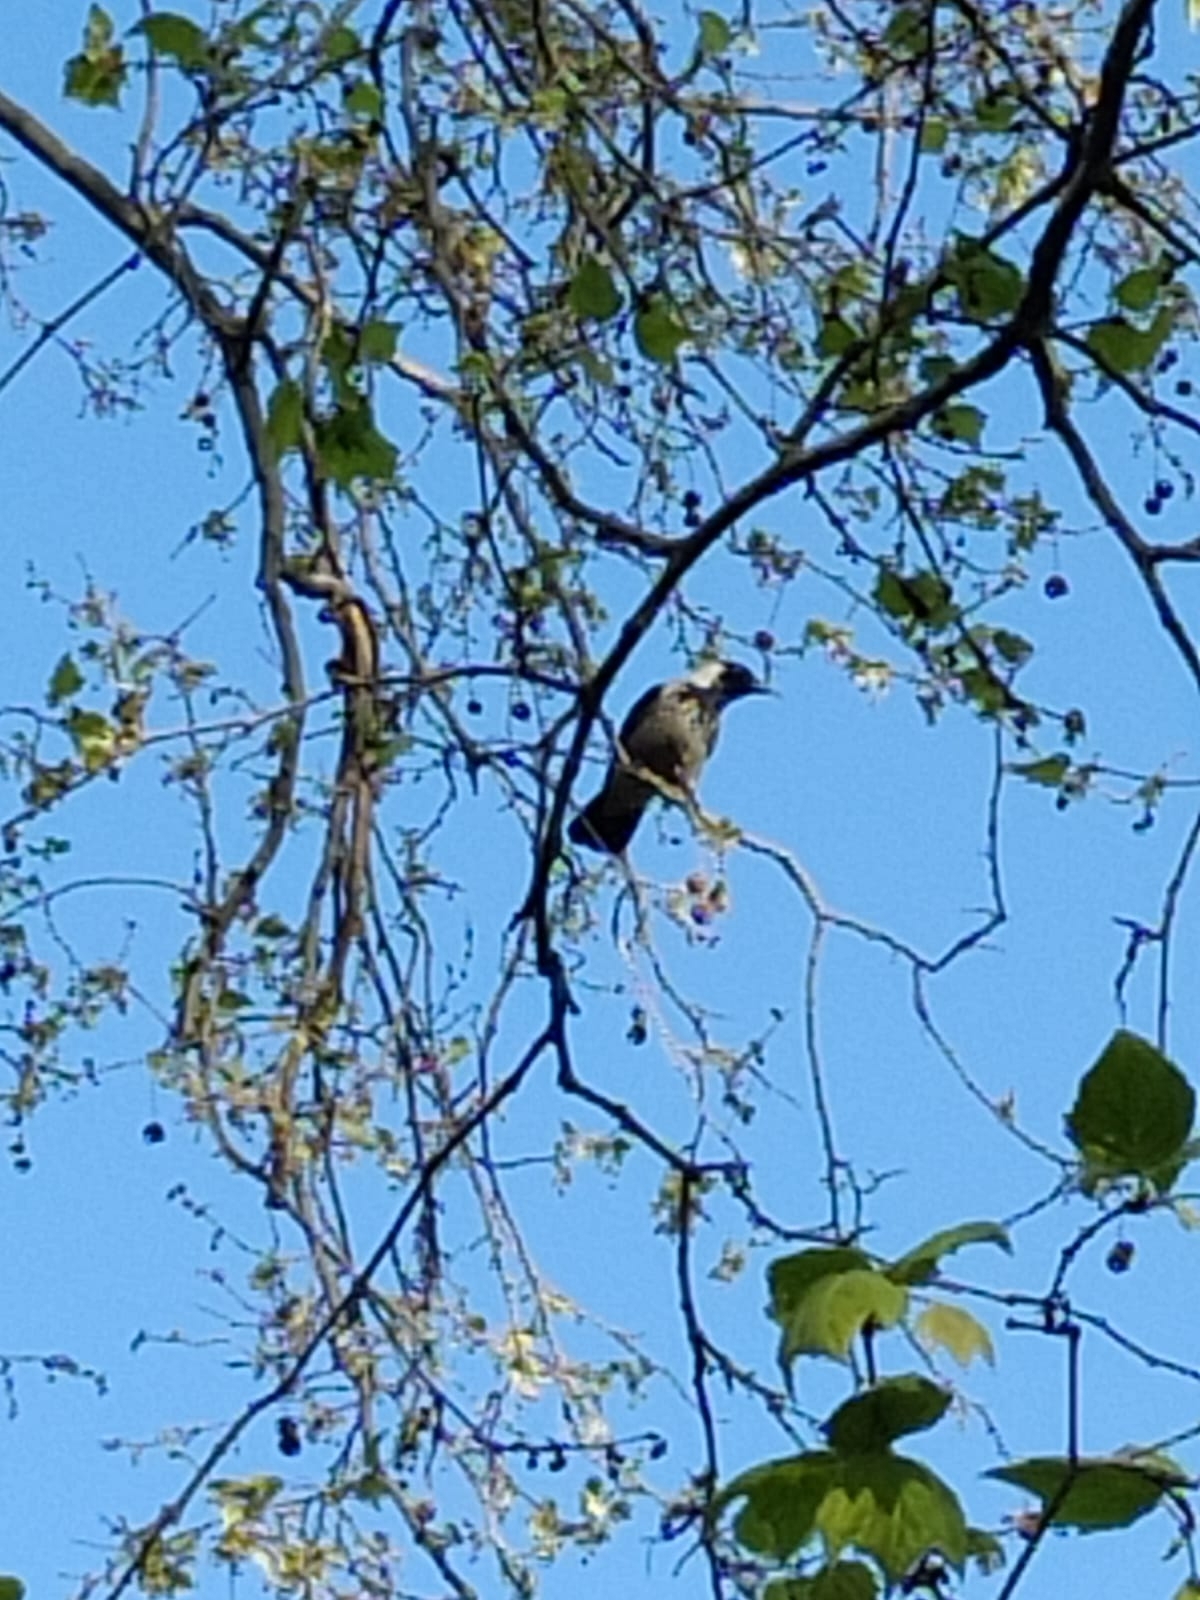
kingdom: Animalia
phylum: Chordata
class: Aves
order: Passeriformes
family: Corvidae
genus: Corvus
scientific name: Corvus cornix
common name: Hooded crow
